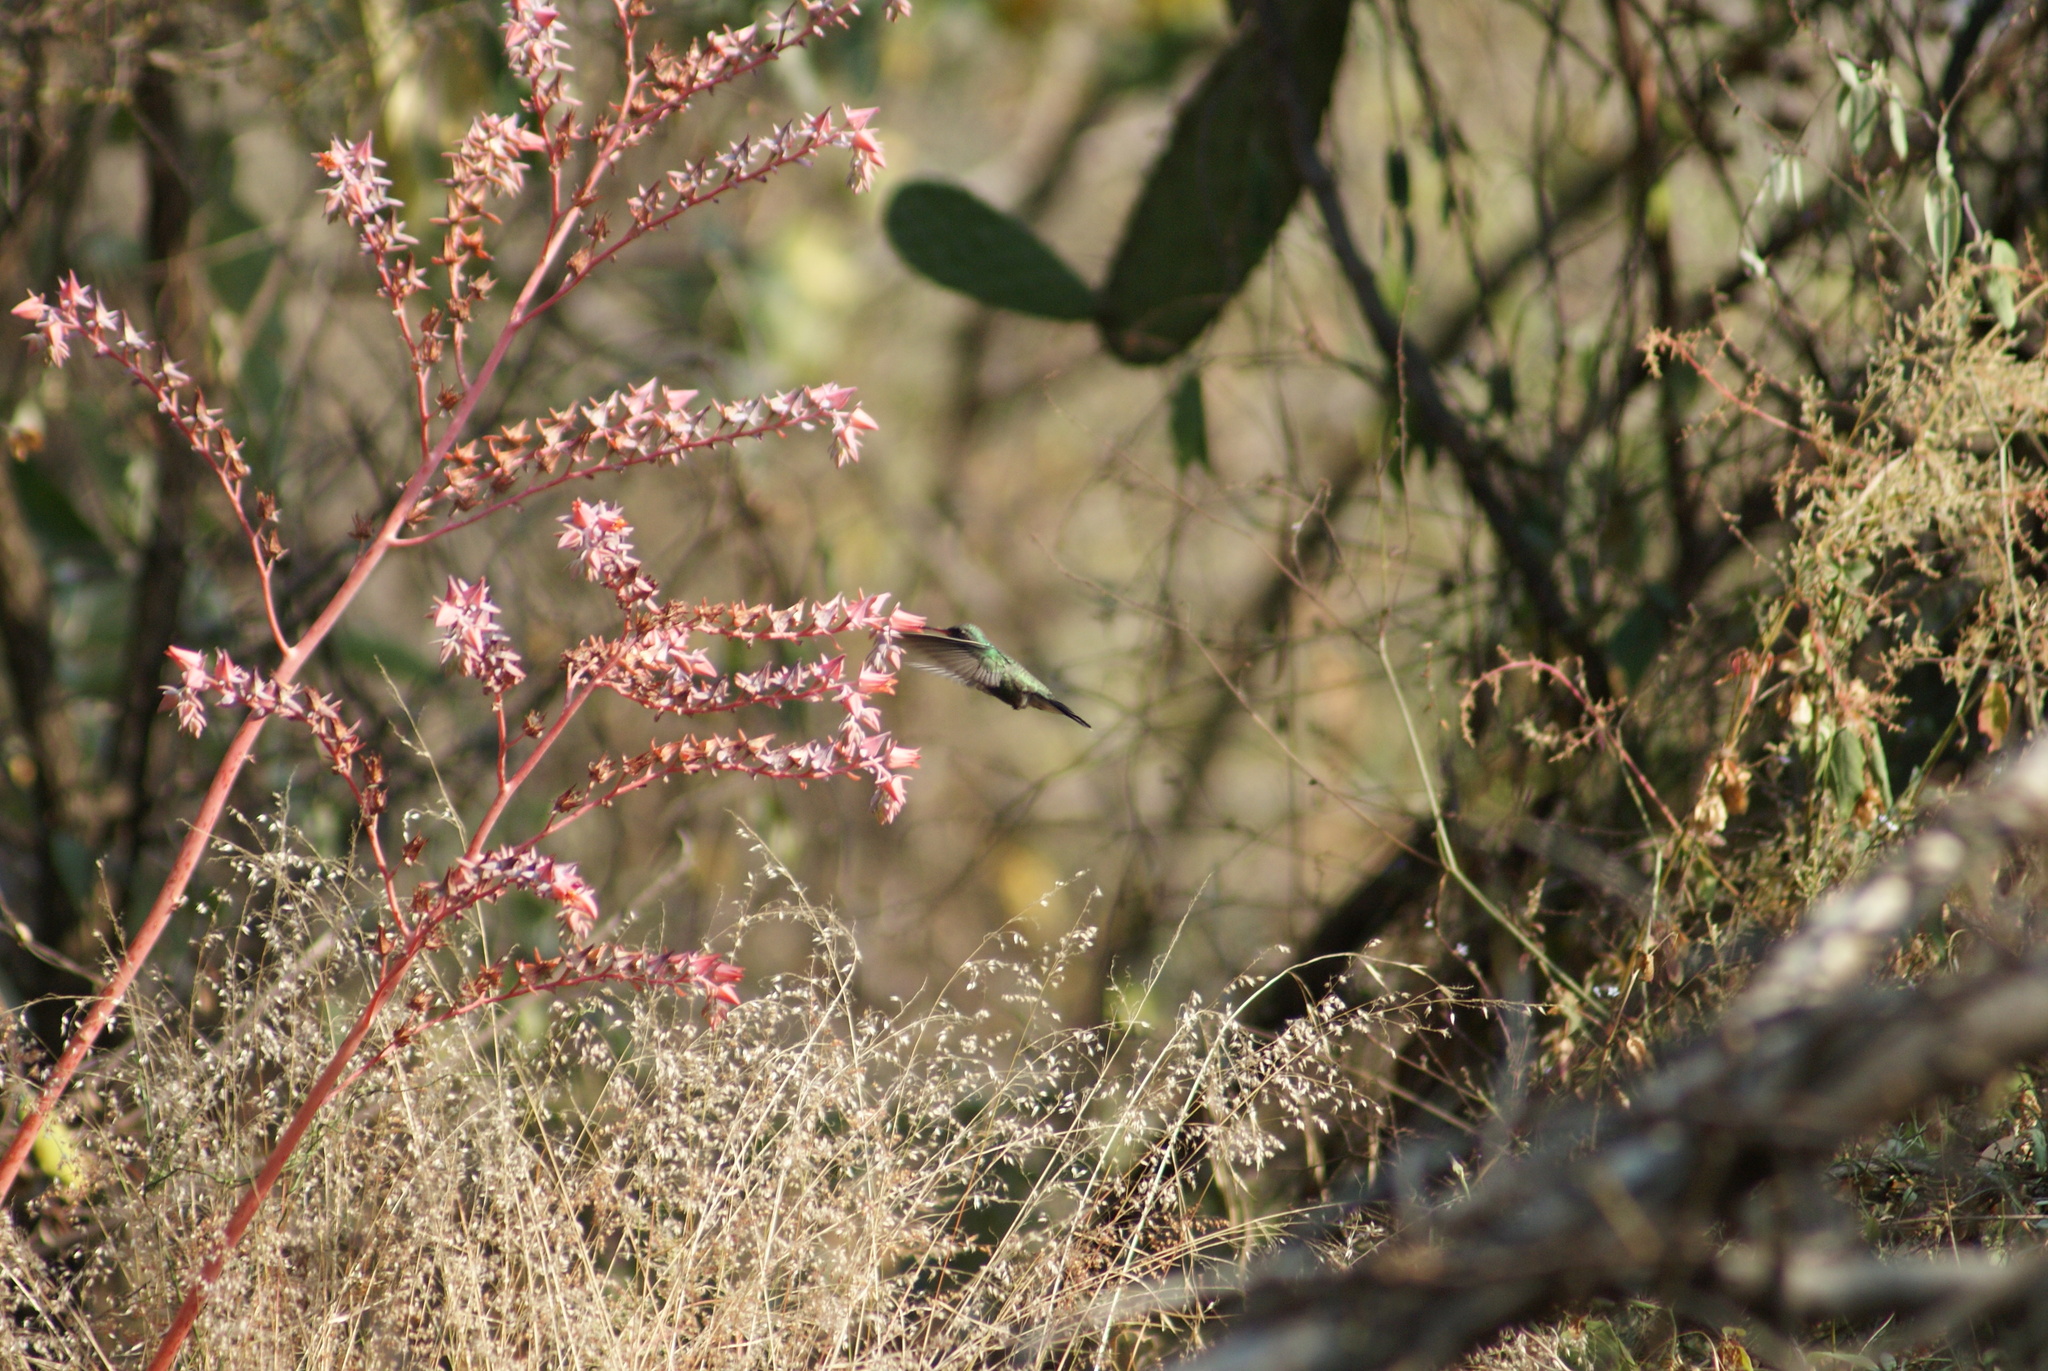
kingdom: Animalia
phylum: Chordata
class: Aves
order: Apodiformes
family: Trochilidae
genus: Cynanthus
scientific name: Cynanthus latirostris
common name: Broad-billed hummingbird
